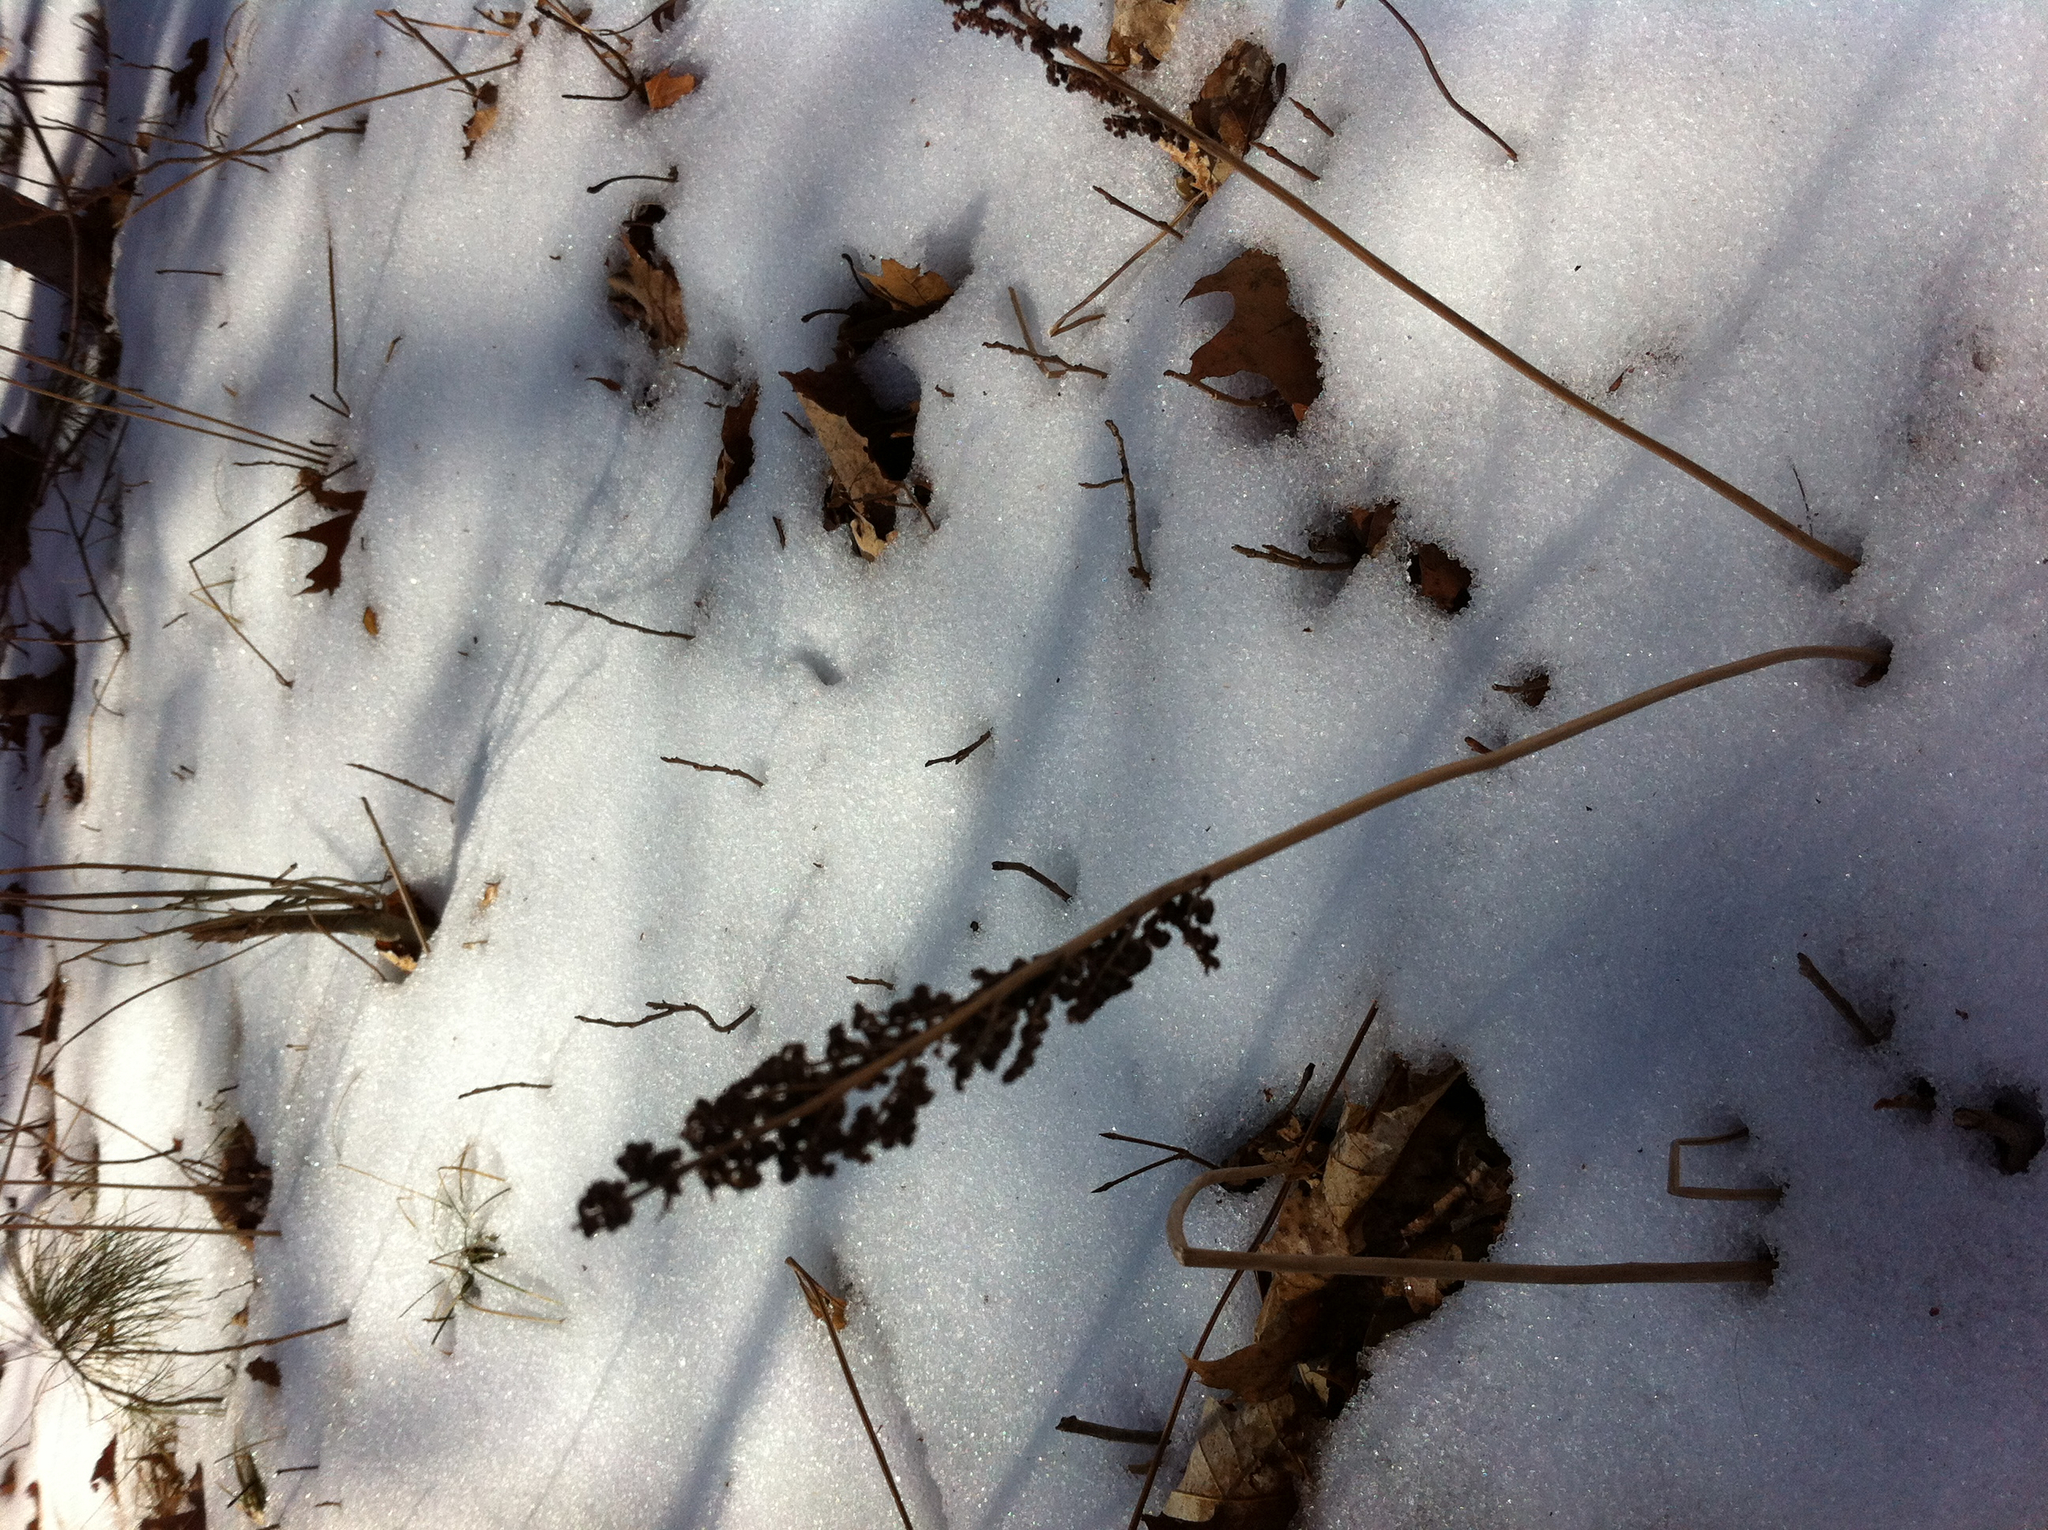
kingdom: Plantae
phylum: Tracheophyta
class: Polypodiopsida
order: Polypodiales
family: Onocleaceae
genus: Onoclea
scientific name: Onoclea sensibilis
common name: Sensitive fern
